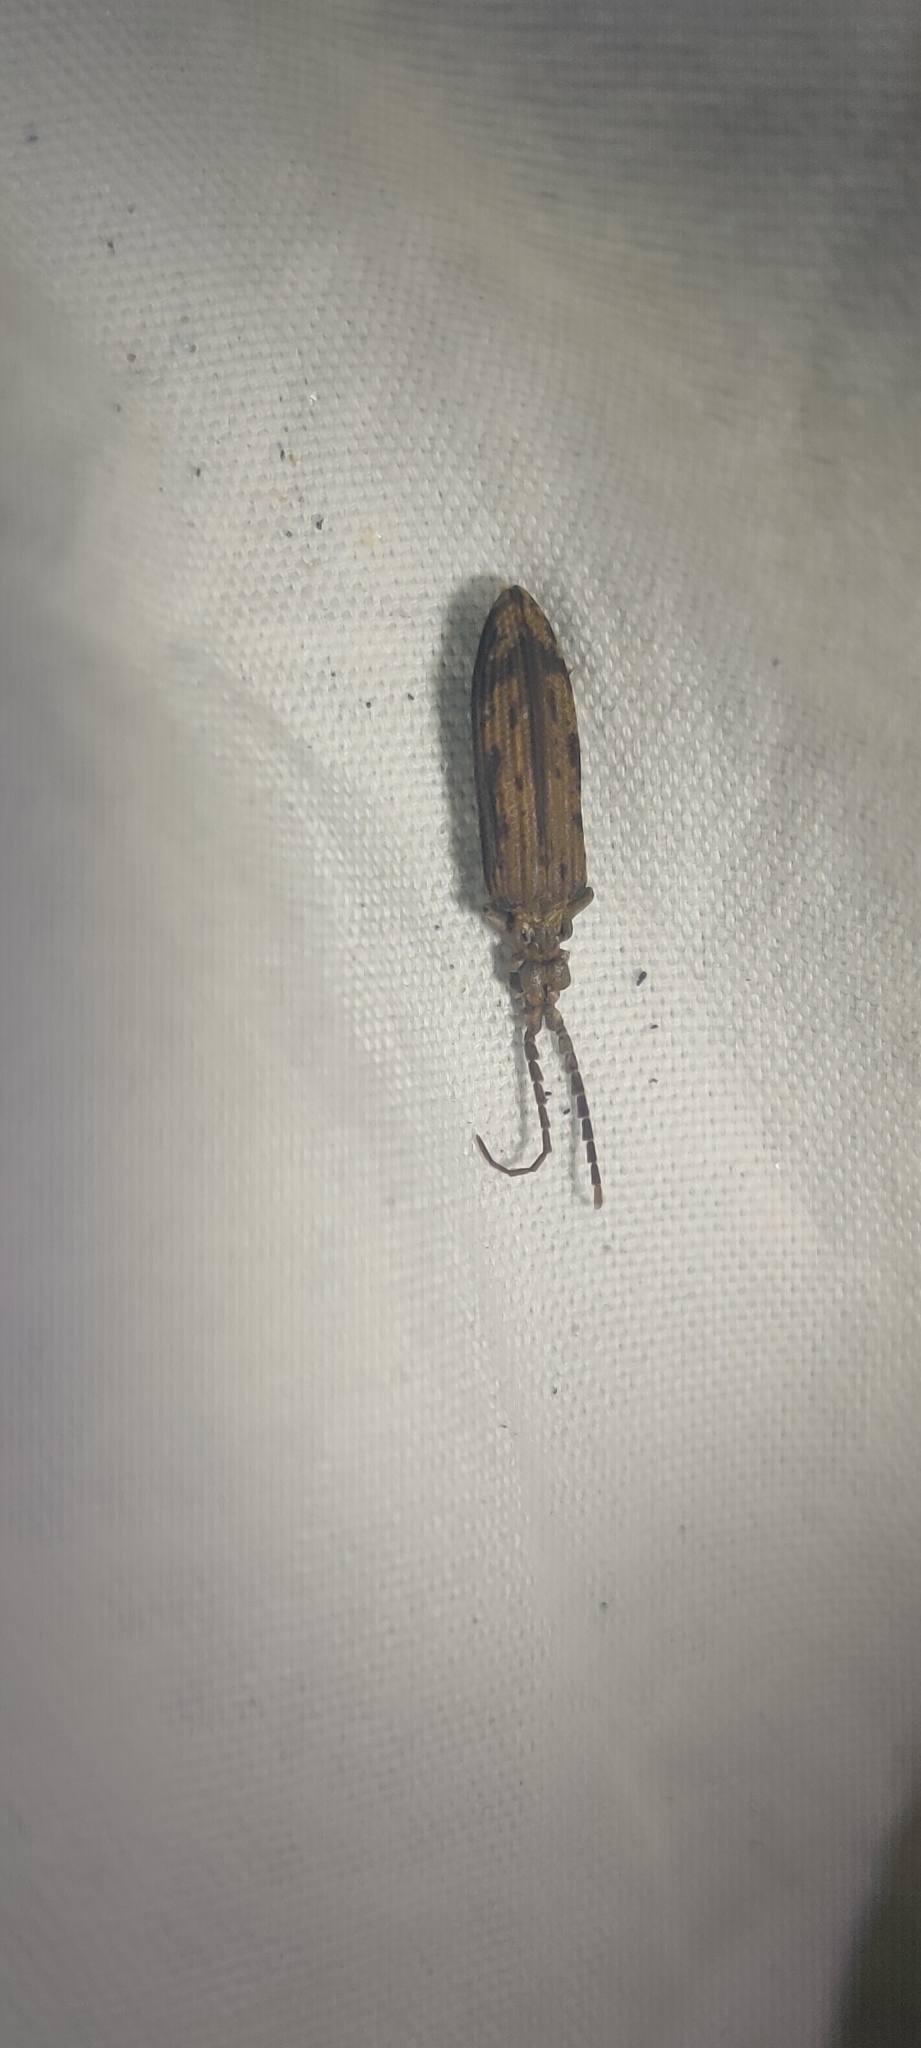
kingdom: Animalia
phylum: Arthropoda
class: Insecta
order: Coleoptera
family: Cupedidae
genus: Prolixocupes
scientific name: Prolixocupes lobiceps
